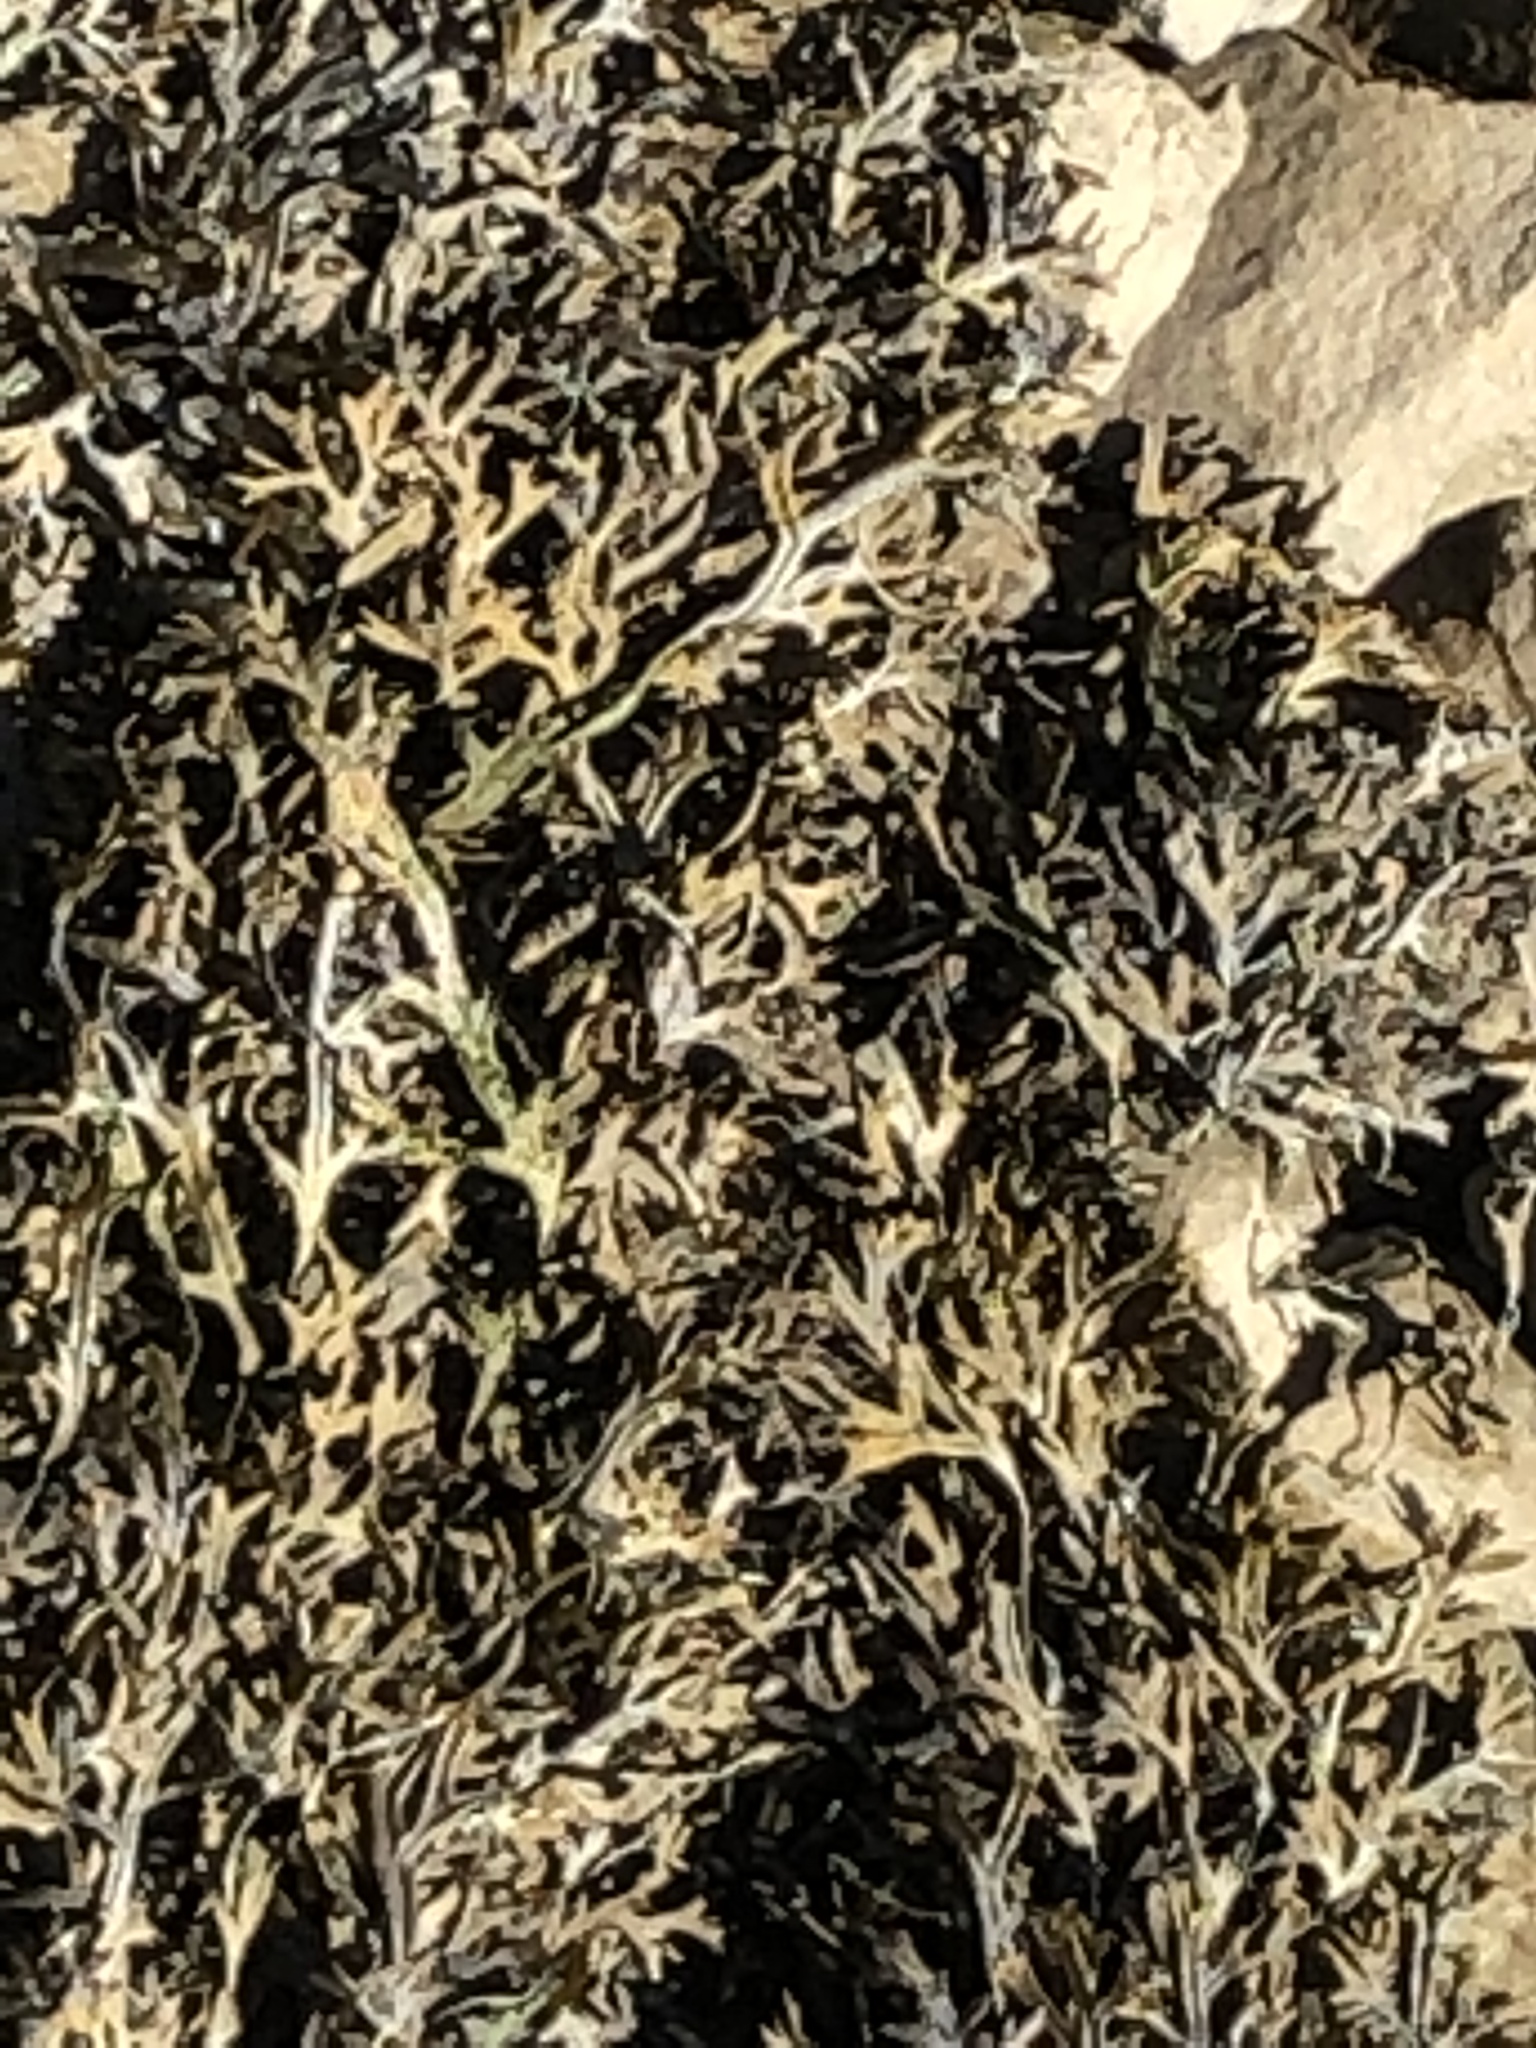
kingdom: Chromista
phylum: Ochrophyta
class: Phaeophyceae
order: Fucales
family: Fucaceae
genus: Fucus
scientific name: Fucus ceranoides
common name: Horned wrack
